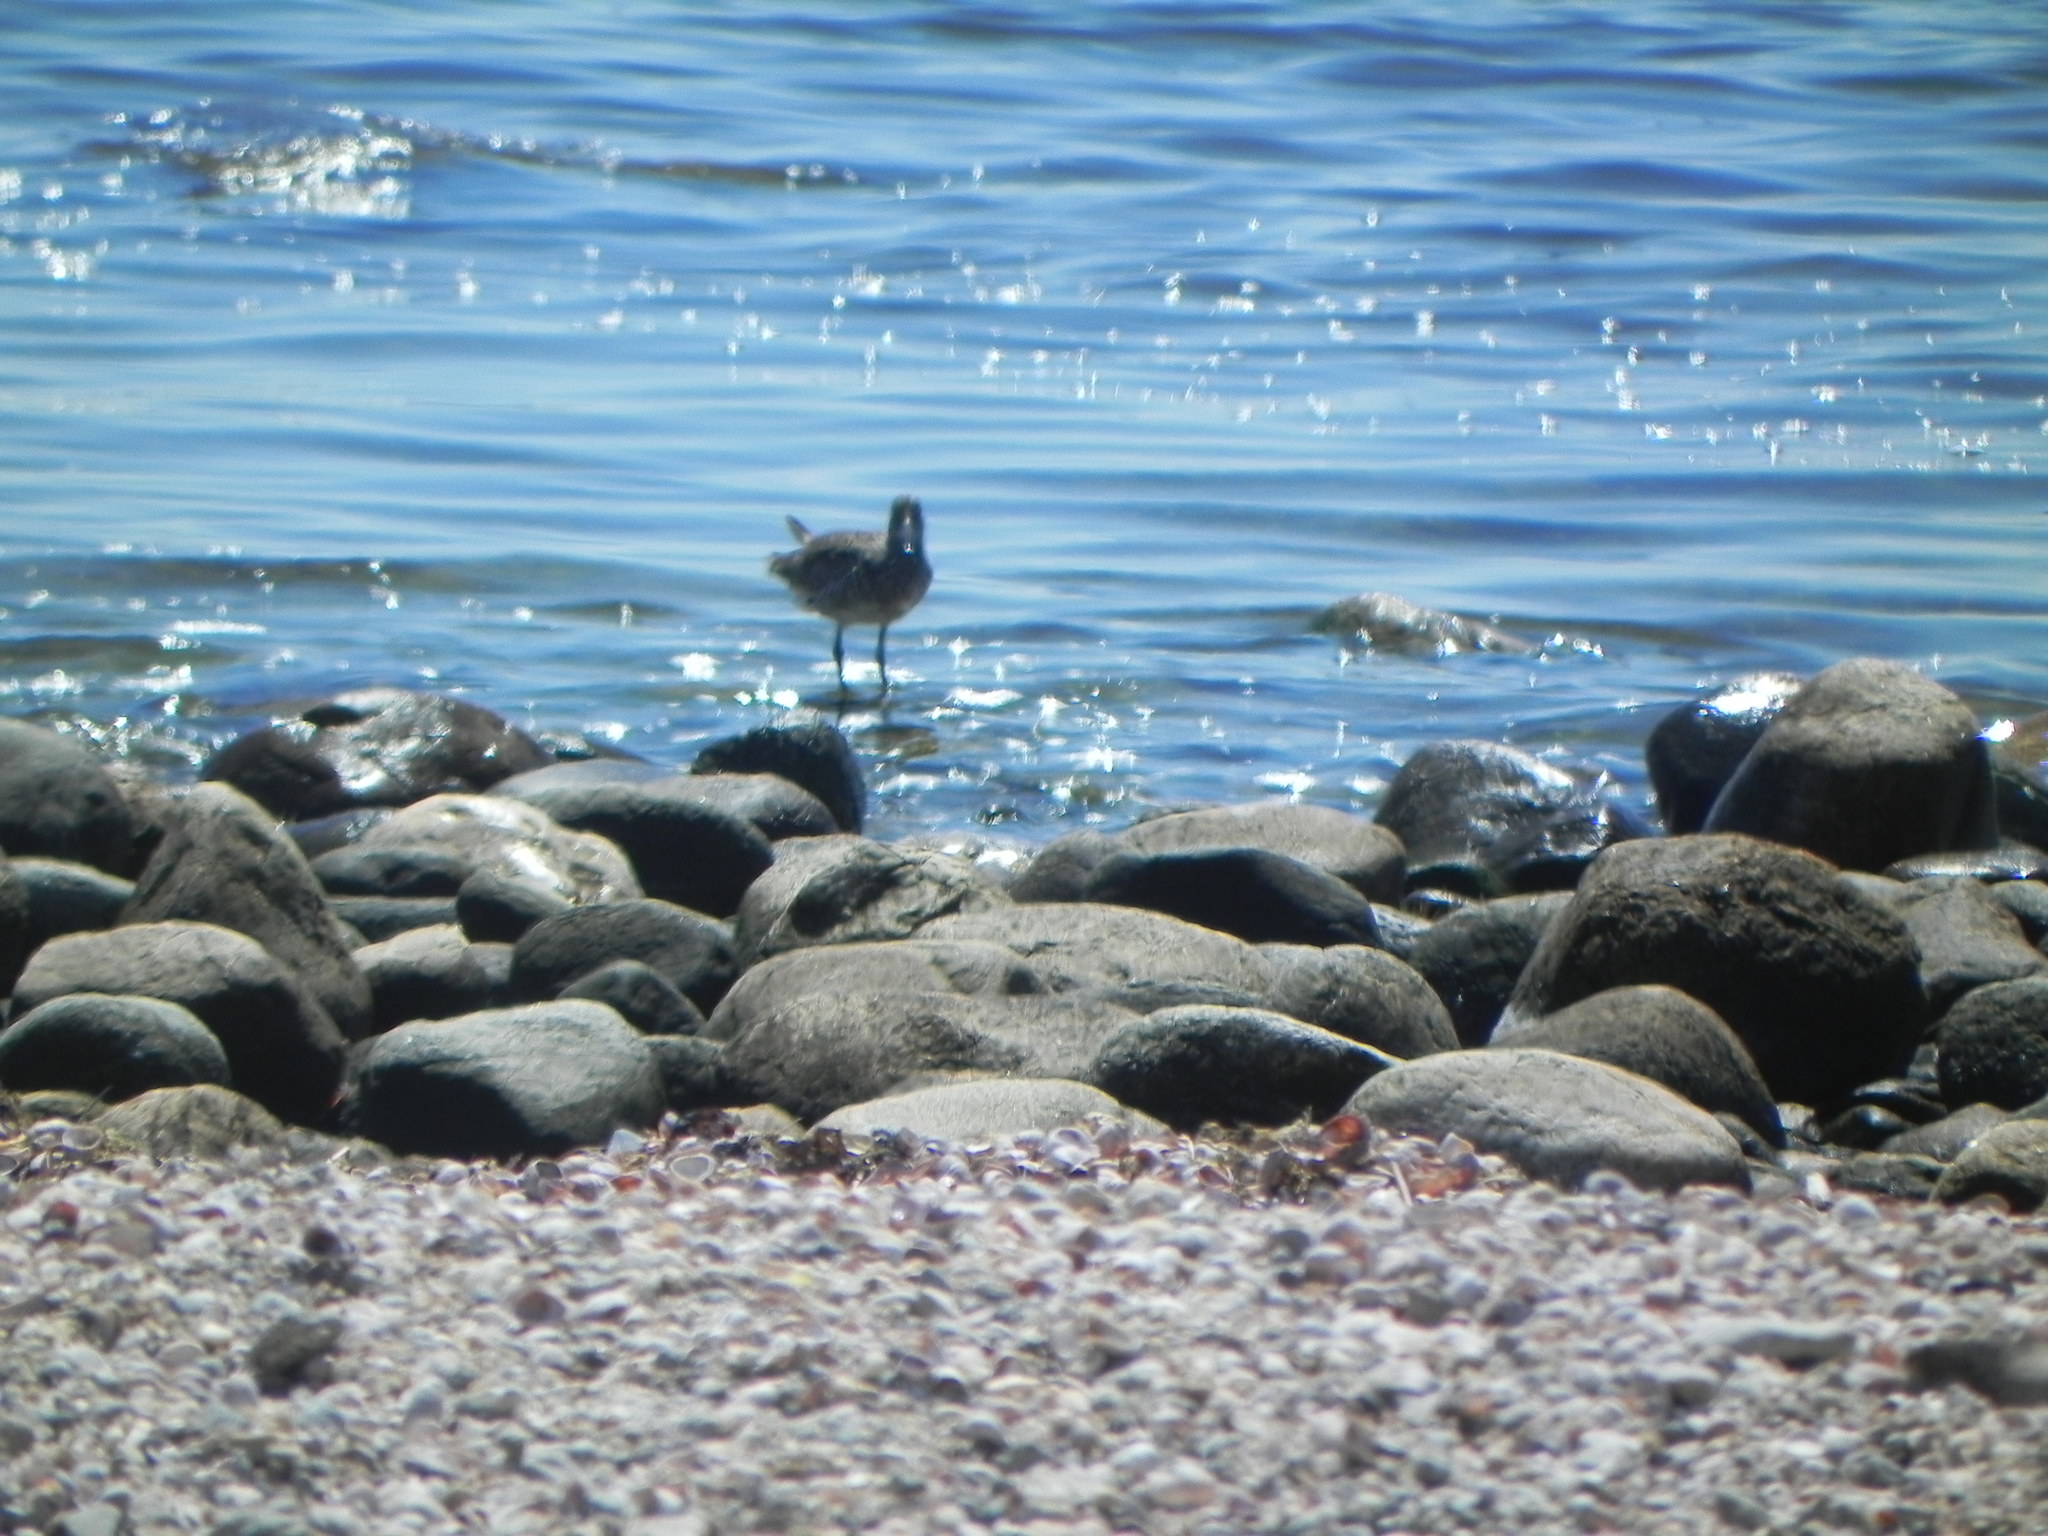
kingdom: Animalia
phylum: Chordata
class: Aves
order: Charadriiformes
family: Scolopacidae
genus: Tringa
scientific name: Tringa semipalmata
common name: Willet
